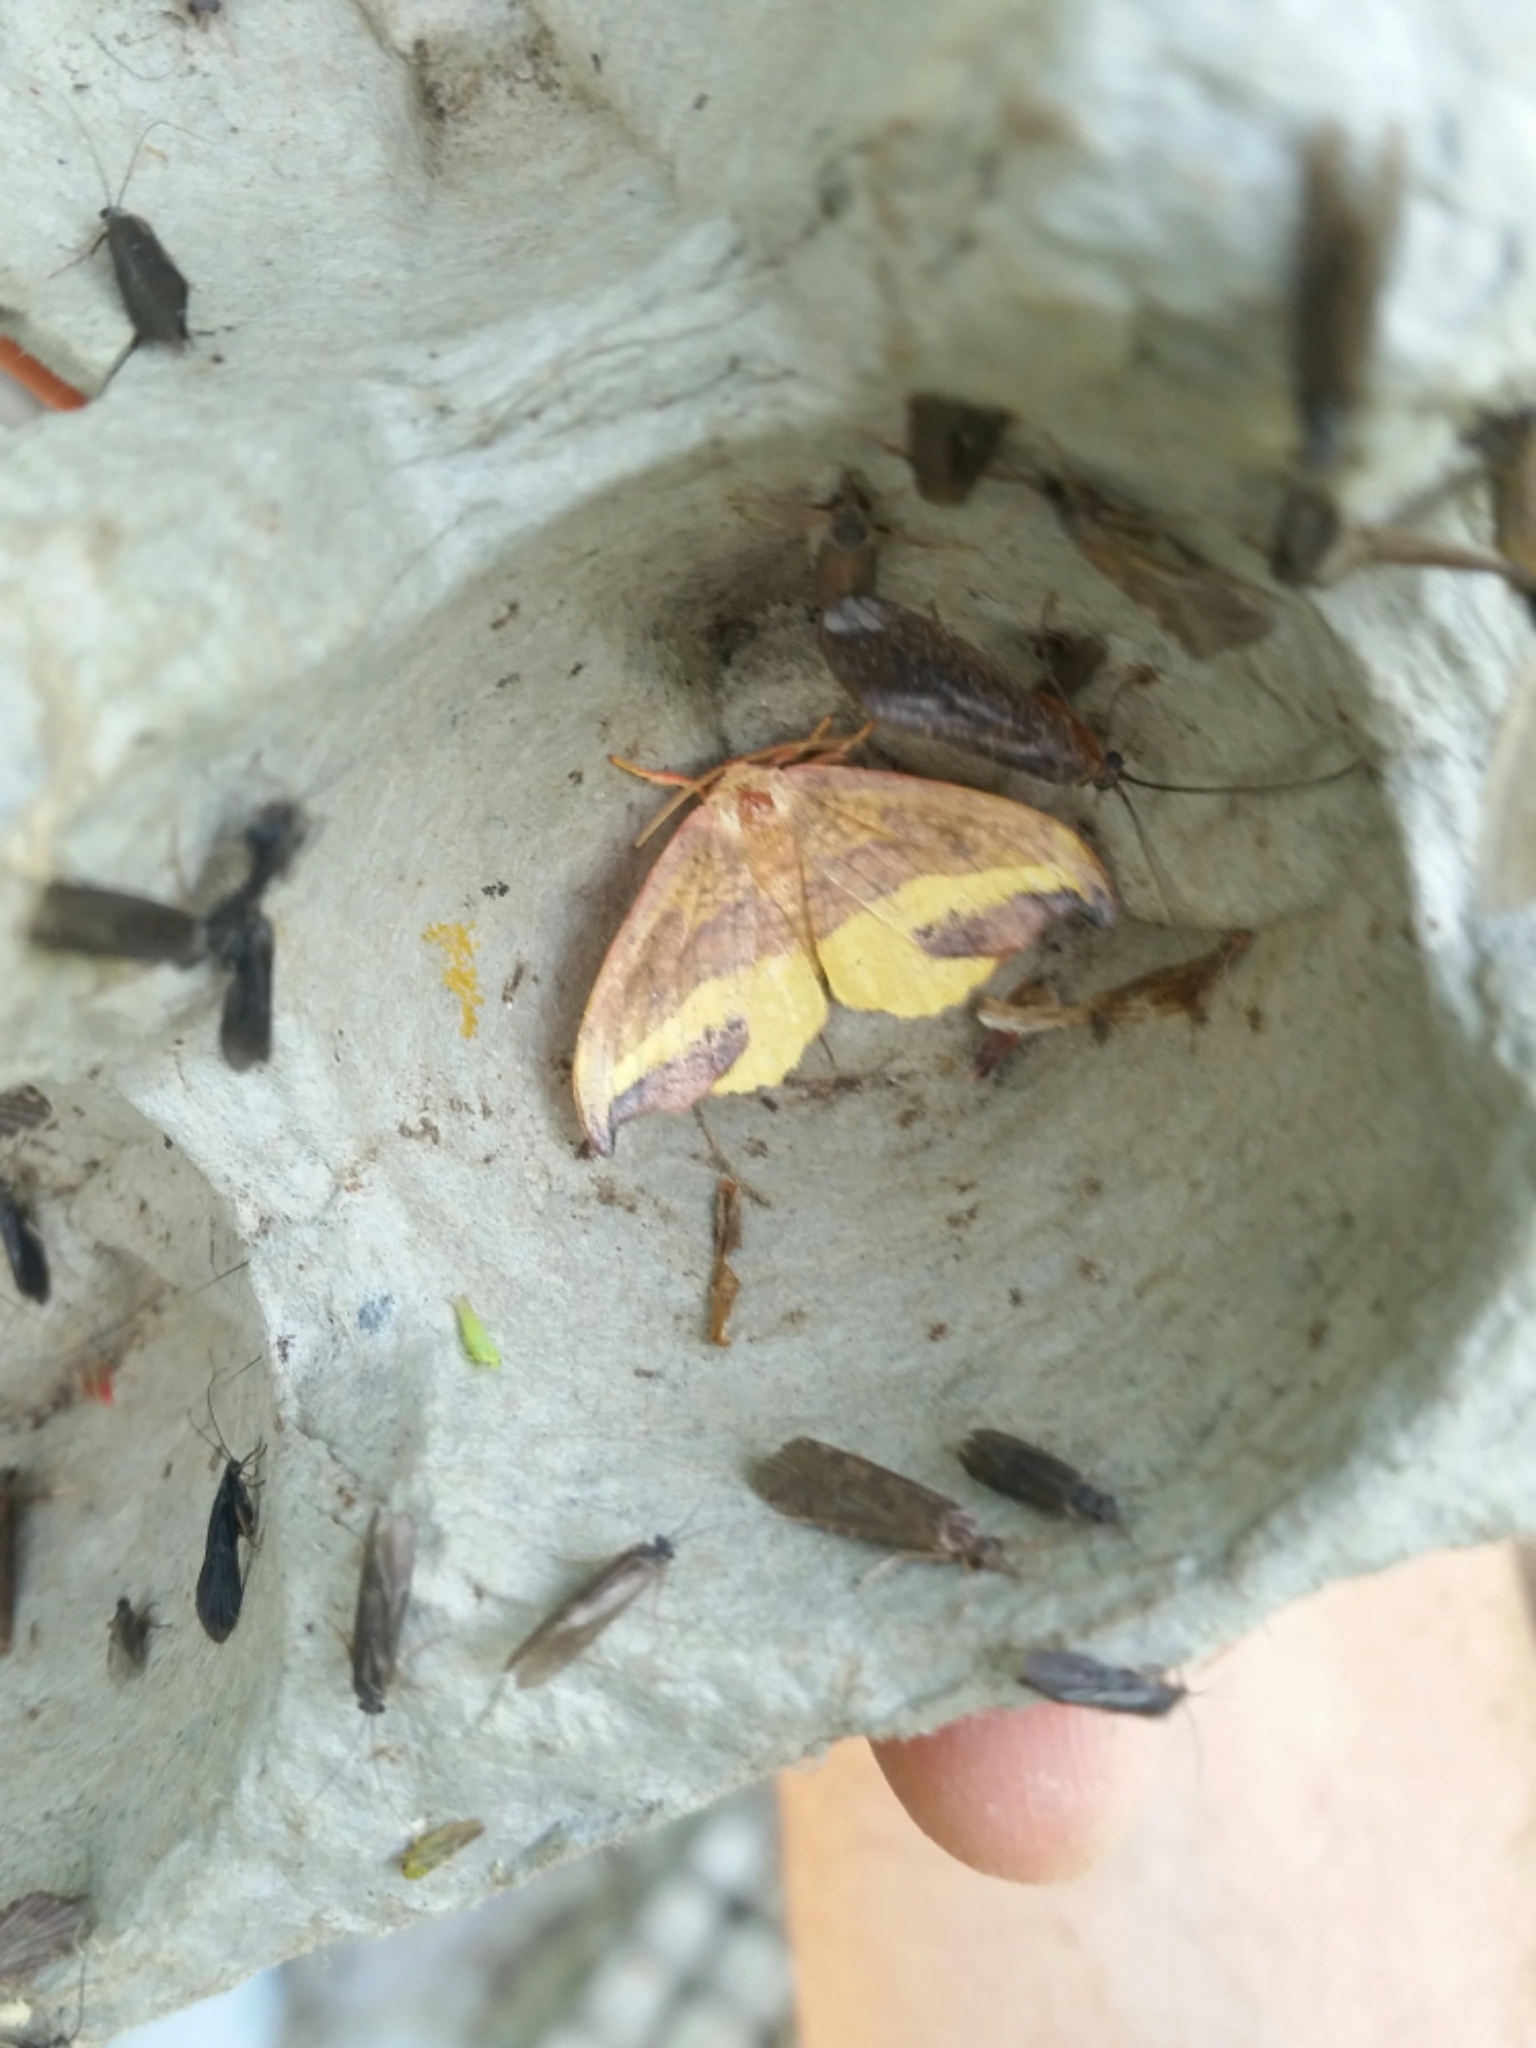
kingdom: Animalia
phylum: Arthropoda
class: Insecta
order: Lepidoptera
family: Drepanidae
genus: Oreta
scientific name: Oreta rosea
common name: Rose hooktip
